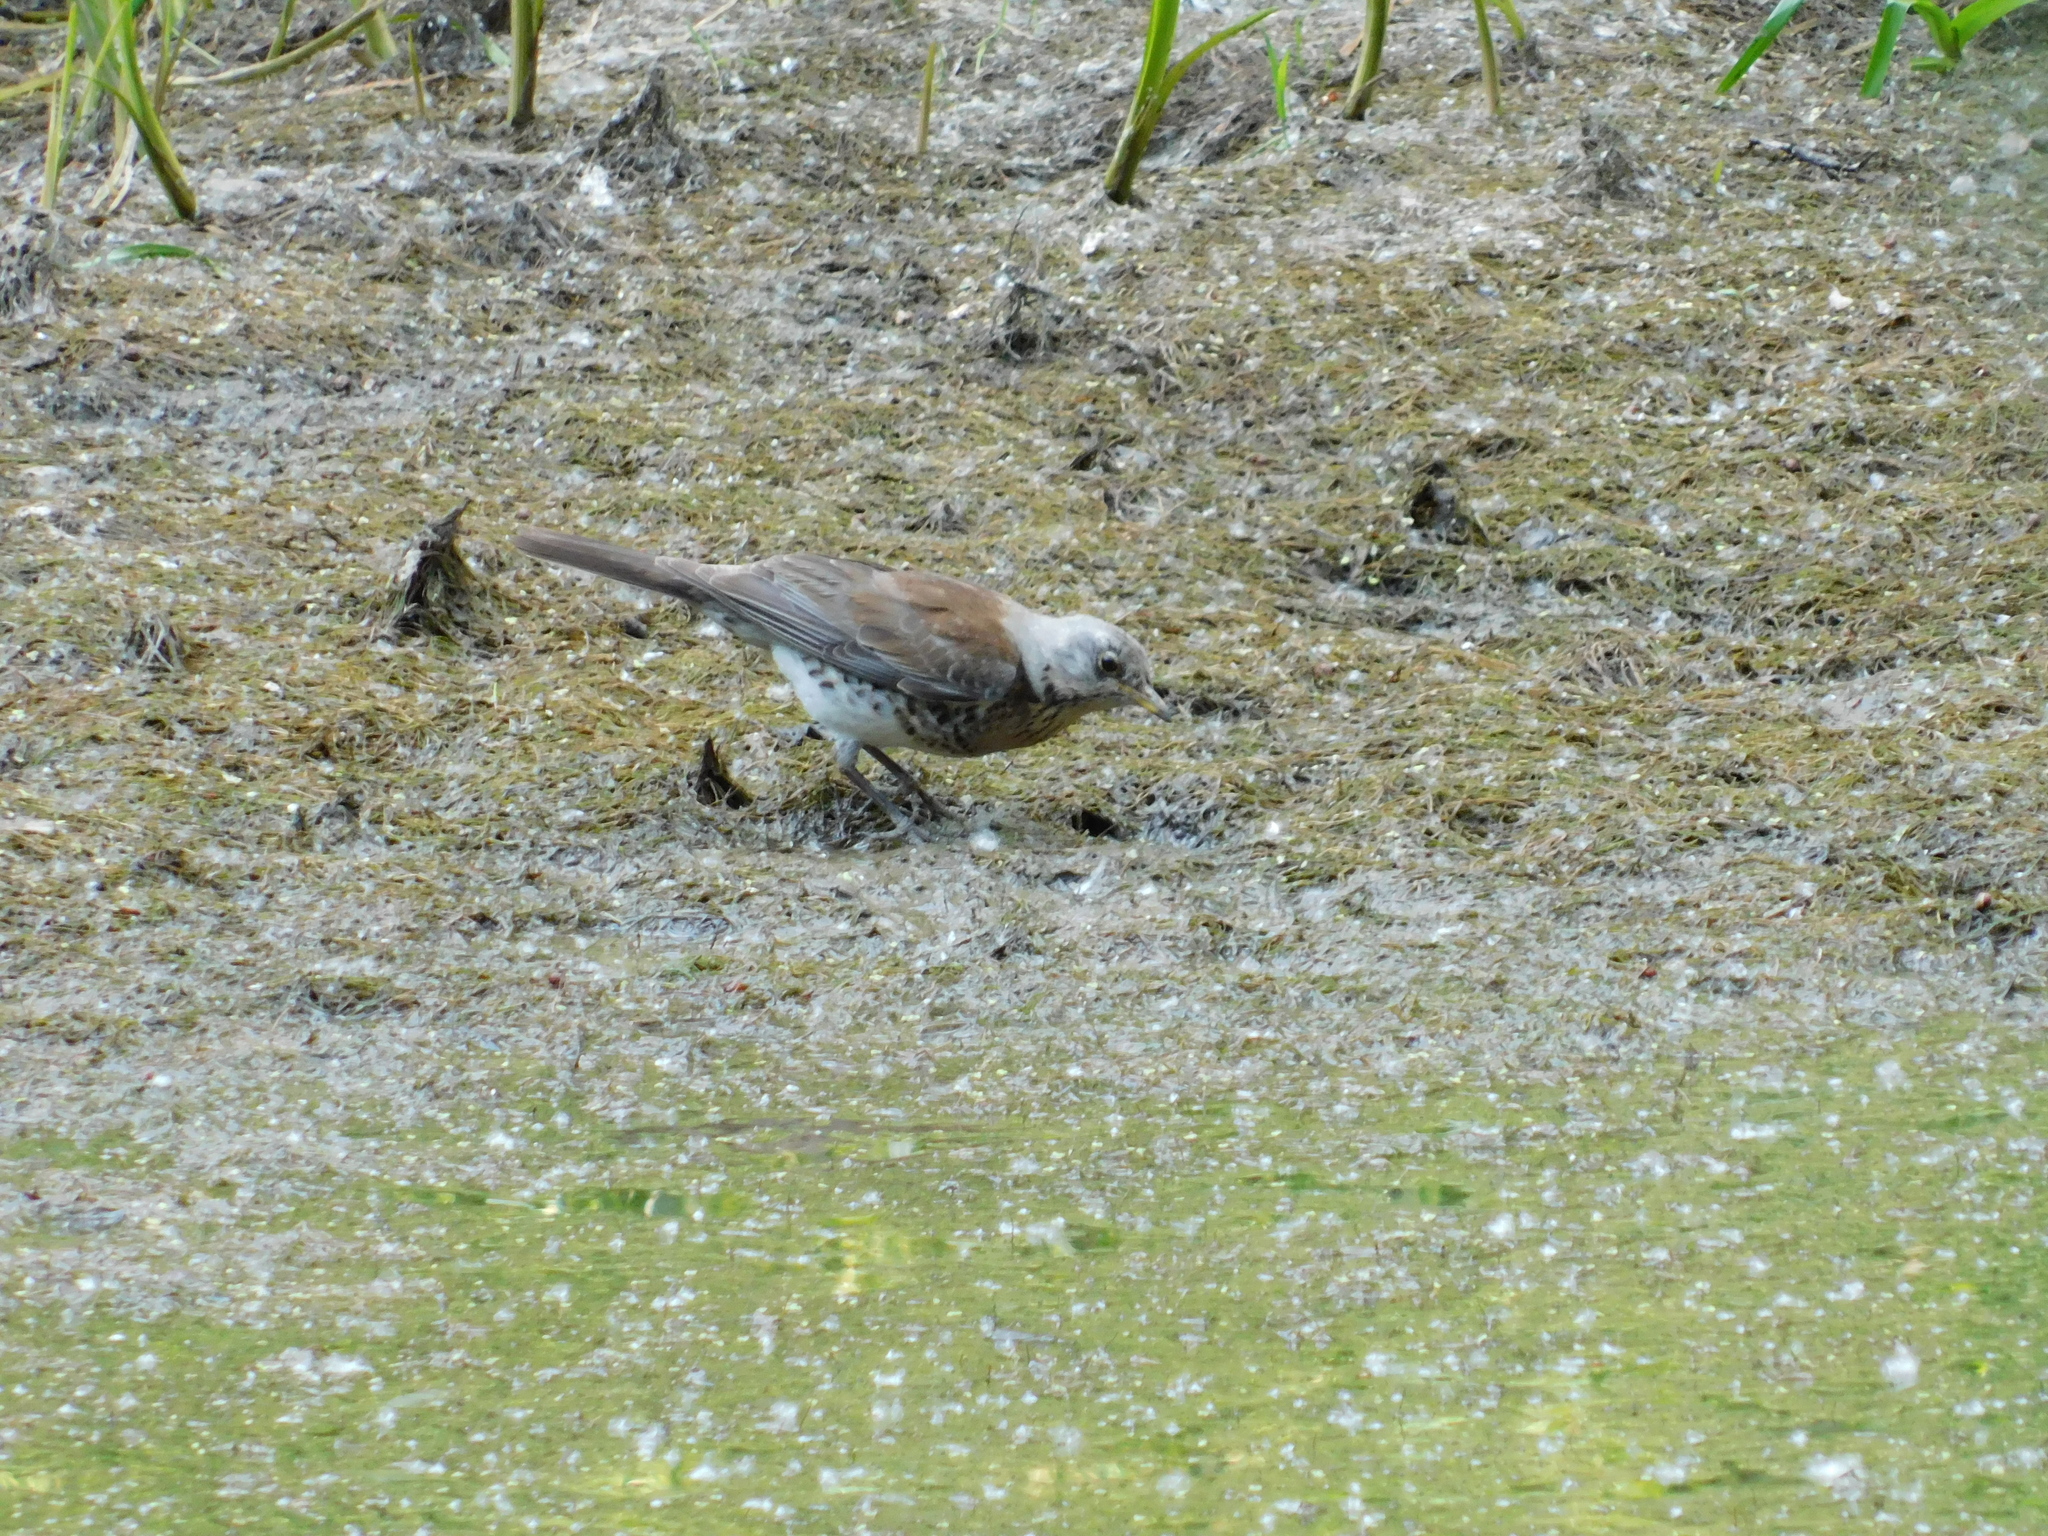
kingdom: Animalia
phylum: Chordata
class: Aves
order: Passeriformes
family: Turdidae
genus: Turdus
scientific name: Turdus pilaris
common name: Fieldfare
